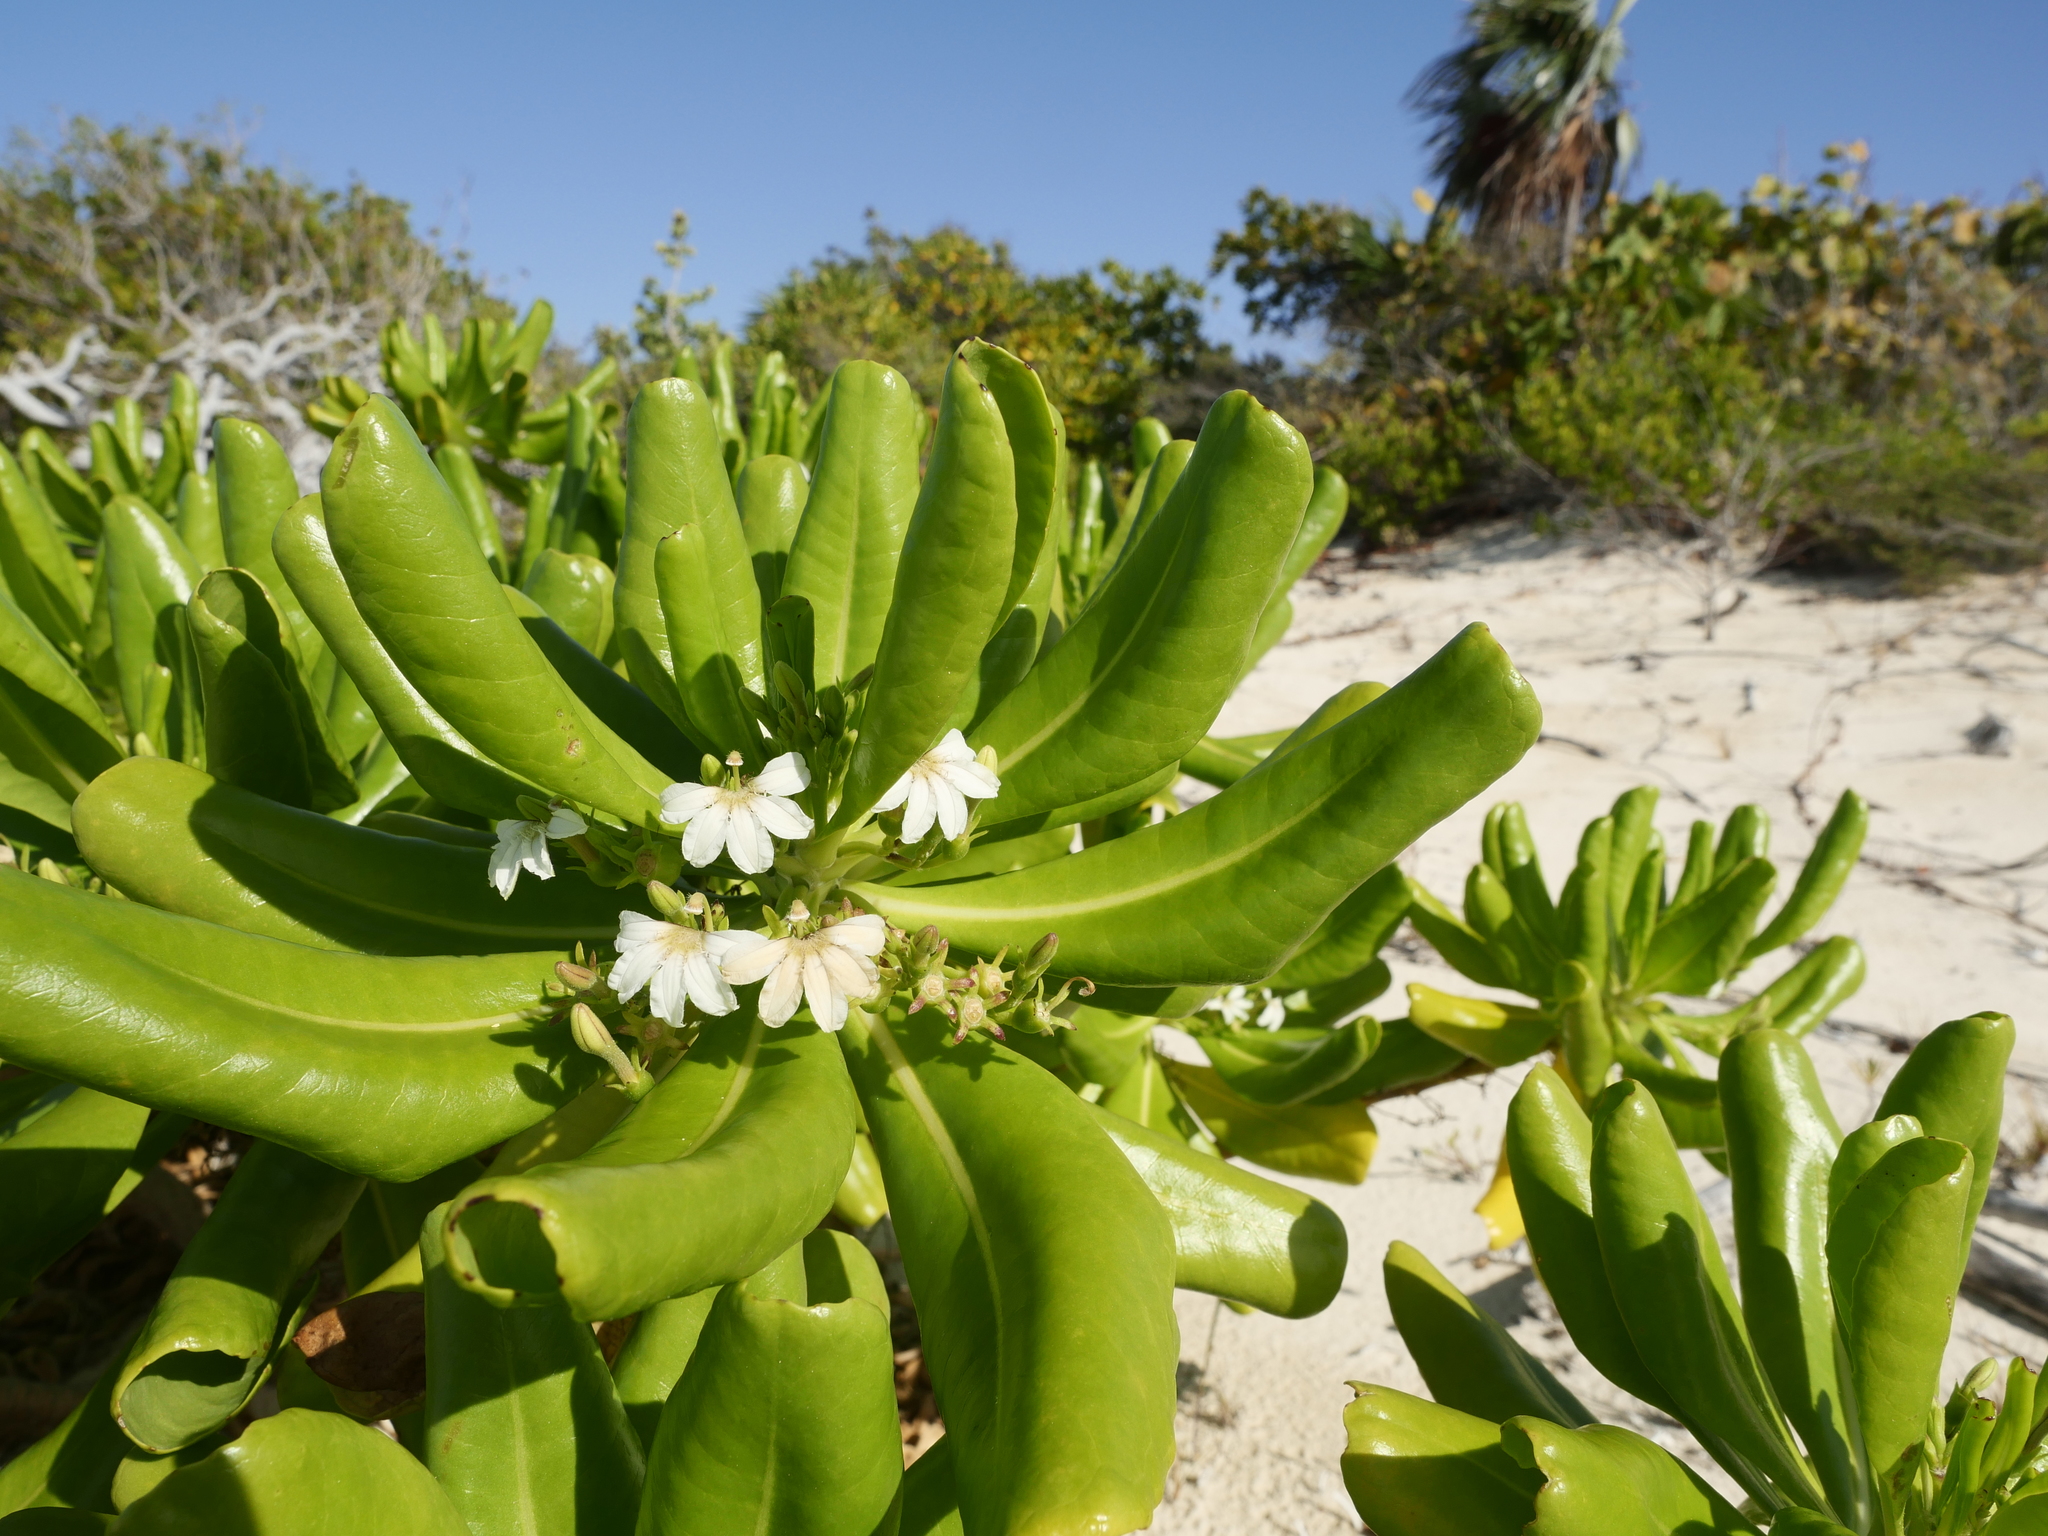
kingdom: Plantae
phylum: Tracheophyta
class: Magnoliopsida
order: Asterales
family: Goodeniaceae
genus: Scaevola
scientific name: Scaevola taccada
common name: Sea lettucetree
